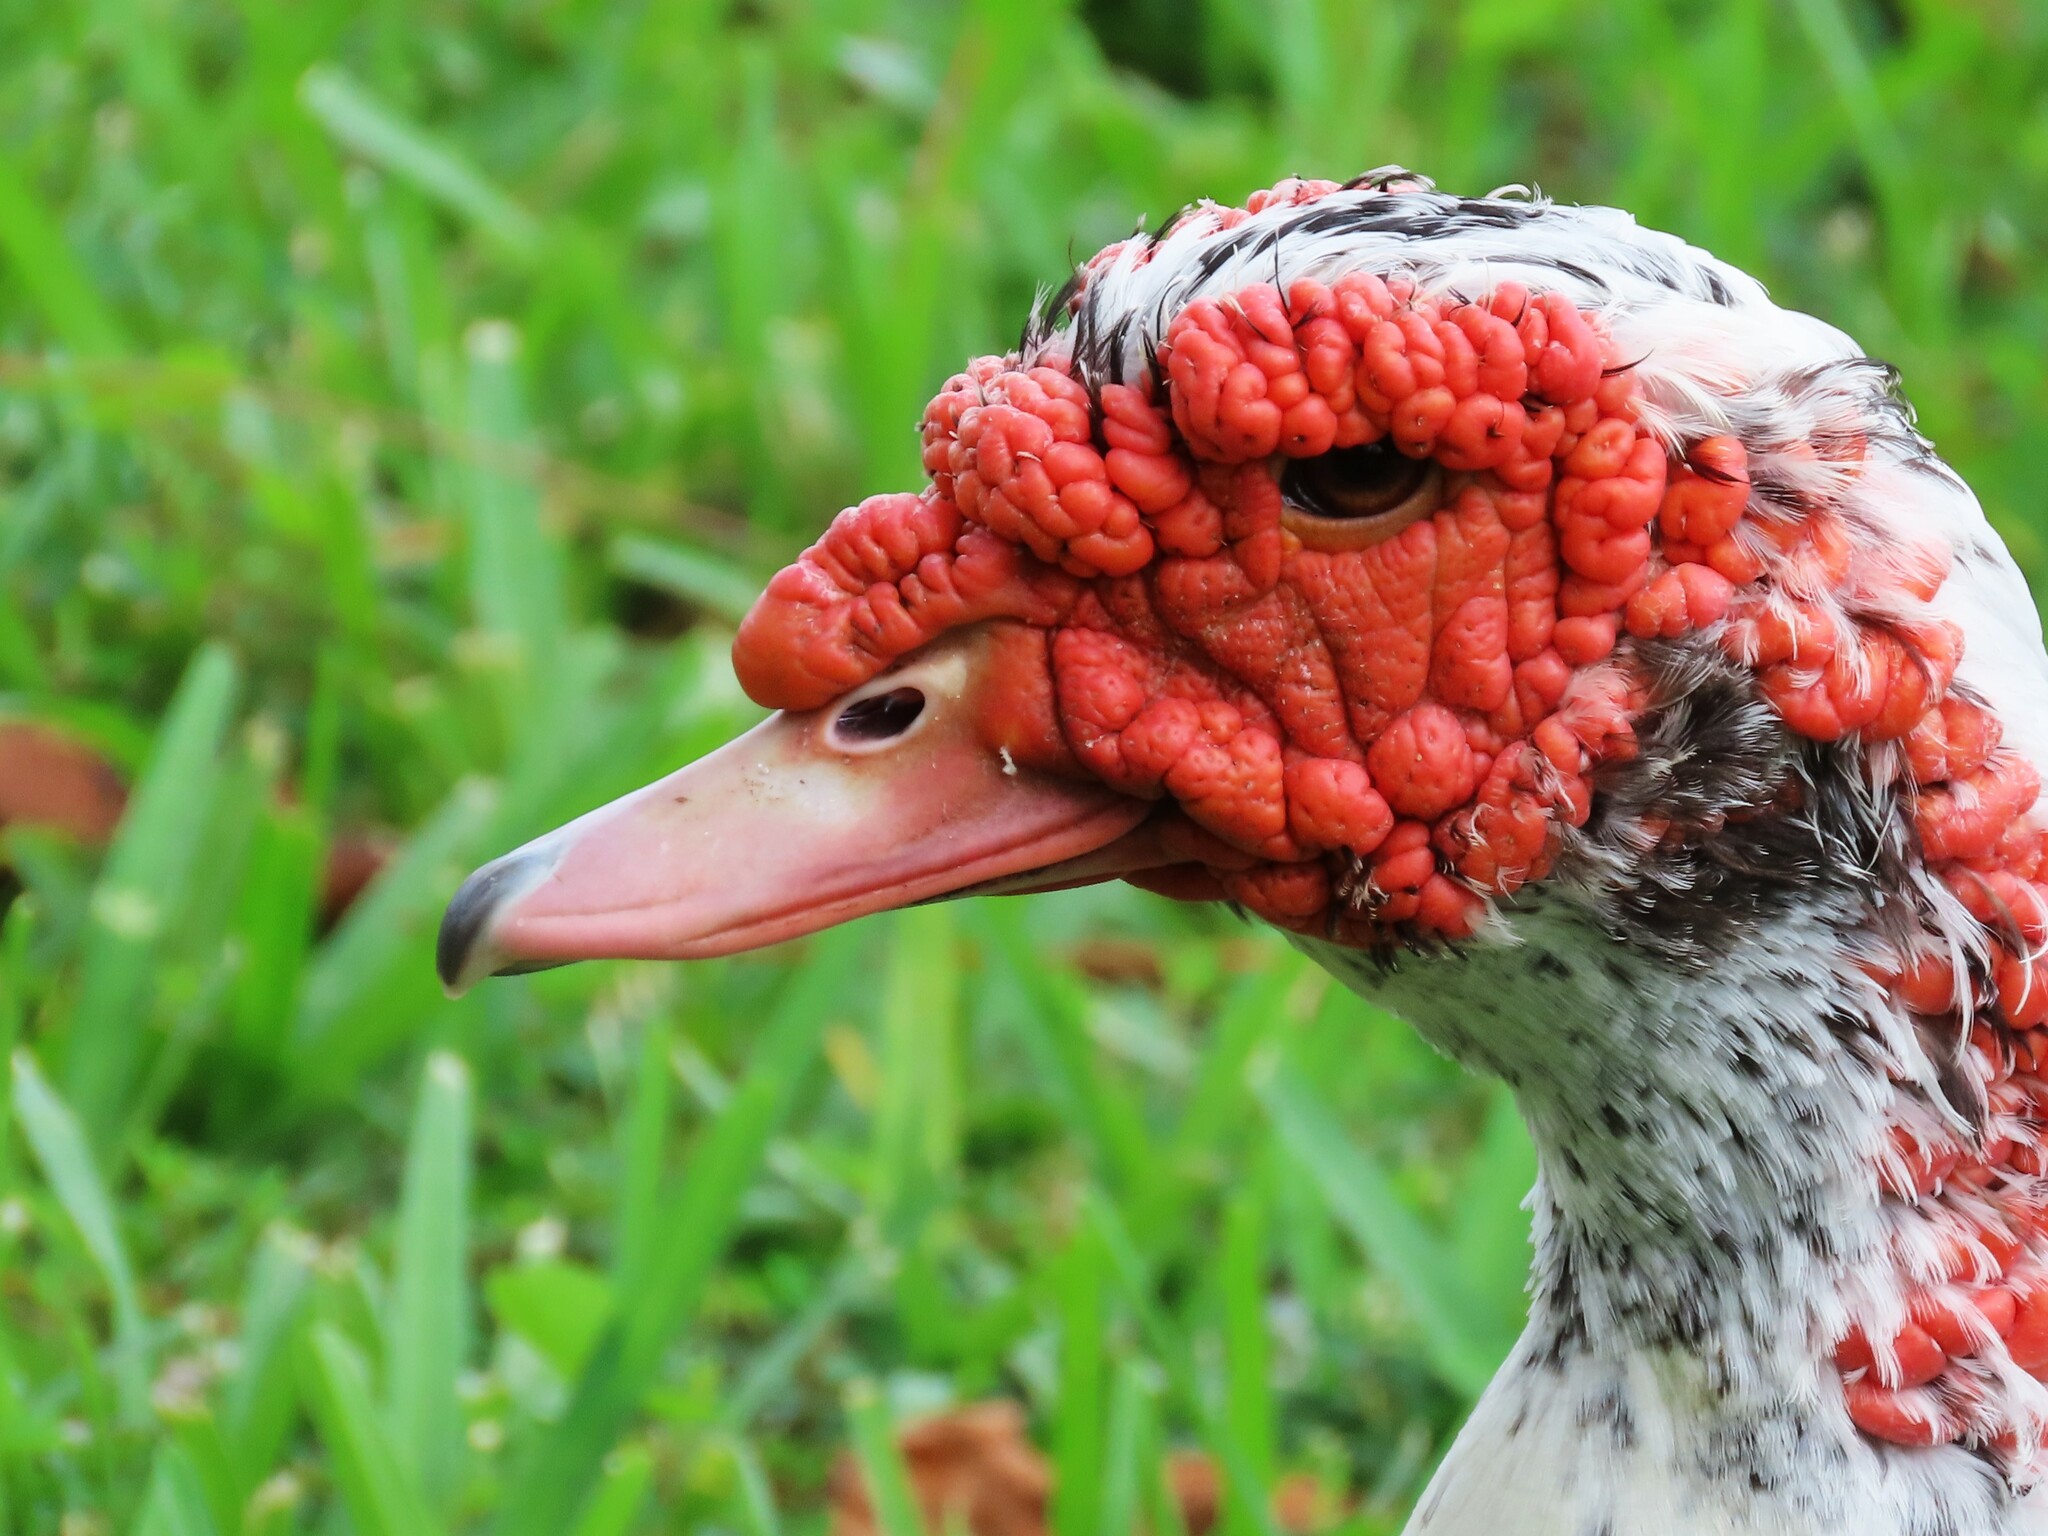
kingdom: Animalia
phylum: Chordata
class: Aves
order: Anseriformes
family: Anatidae
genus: Cairina
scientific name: Cairina moschata
